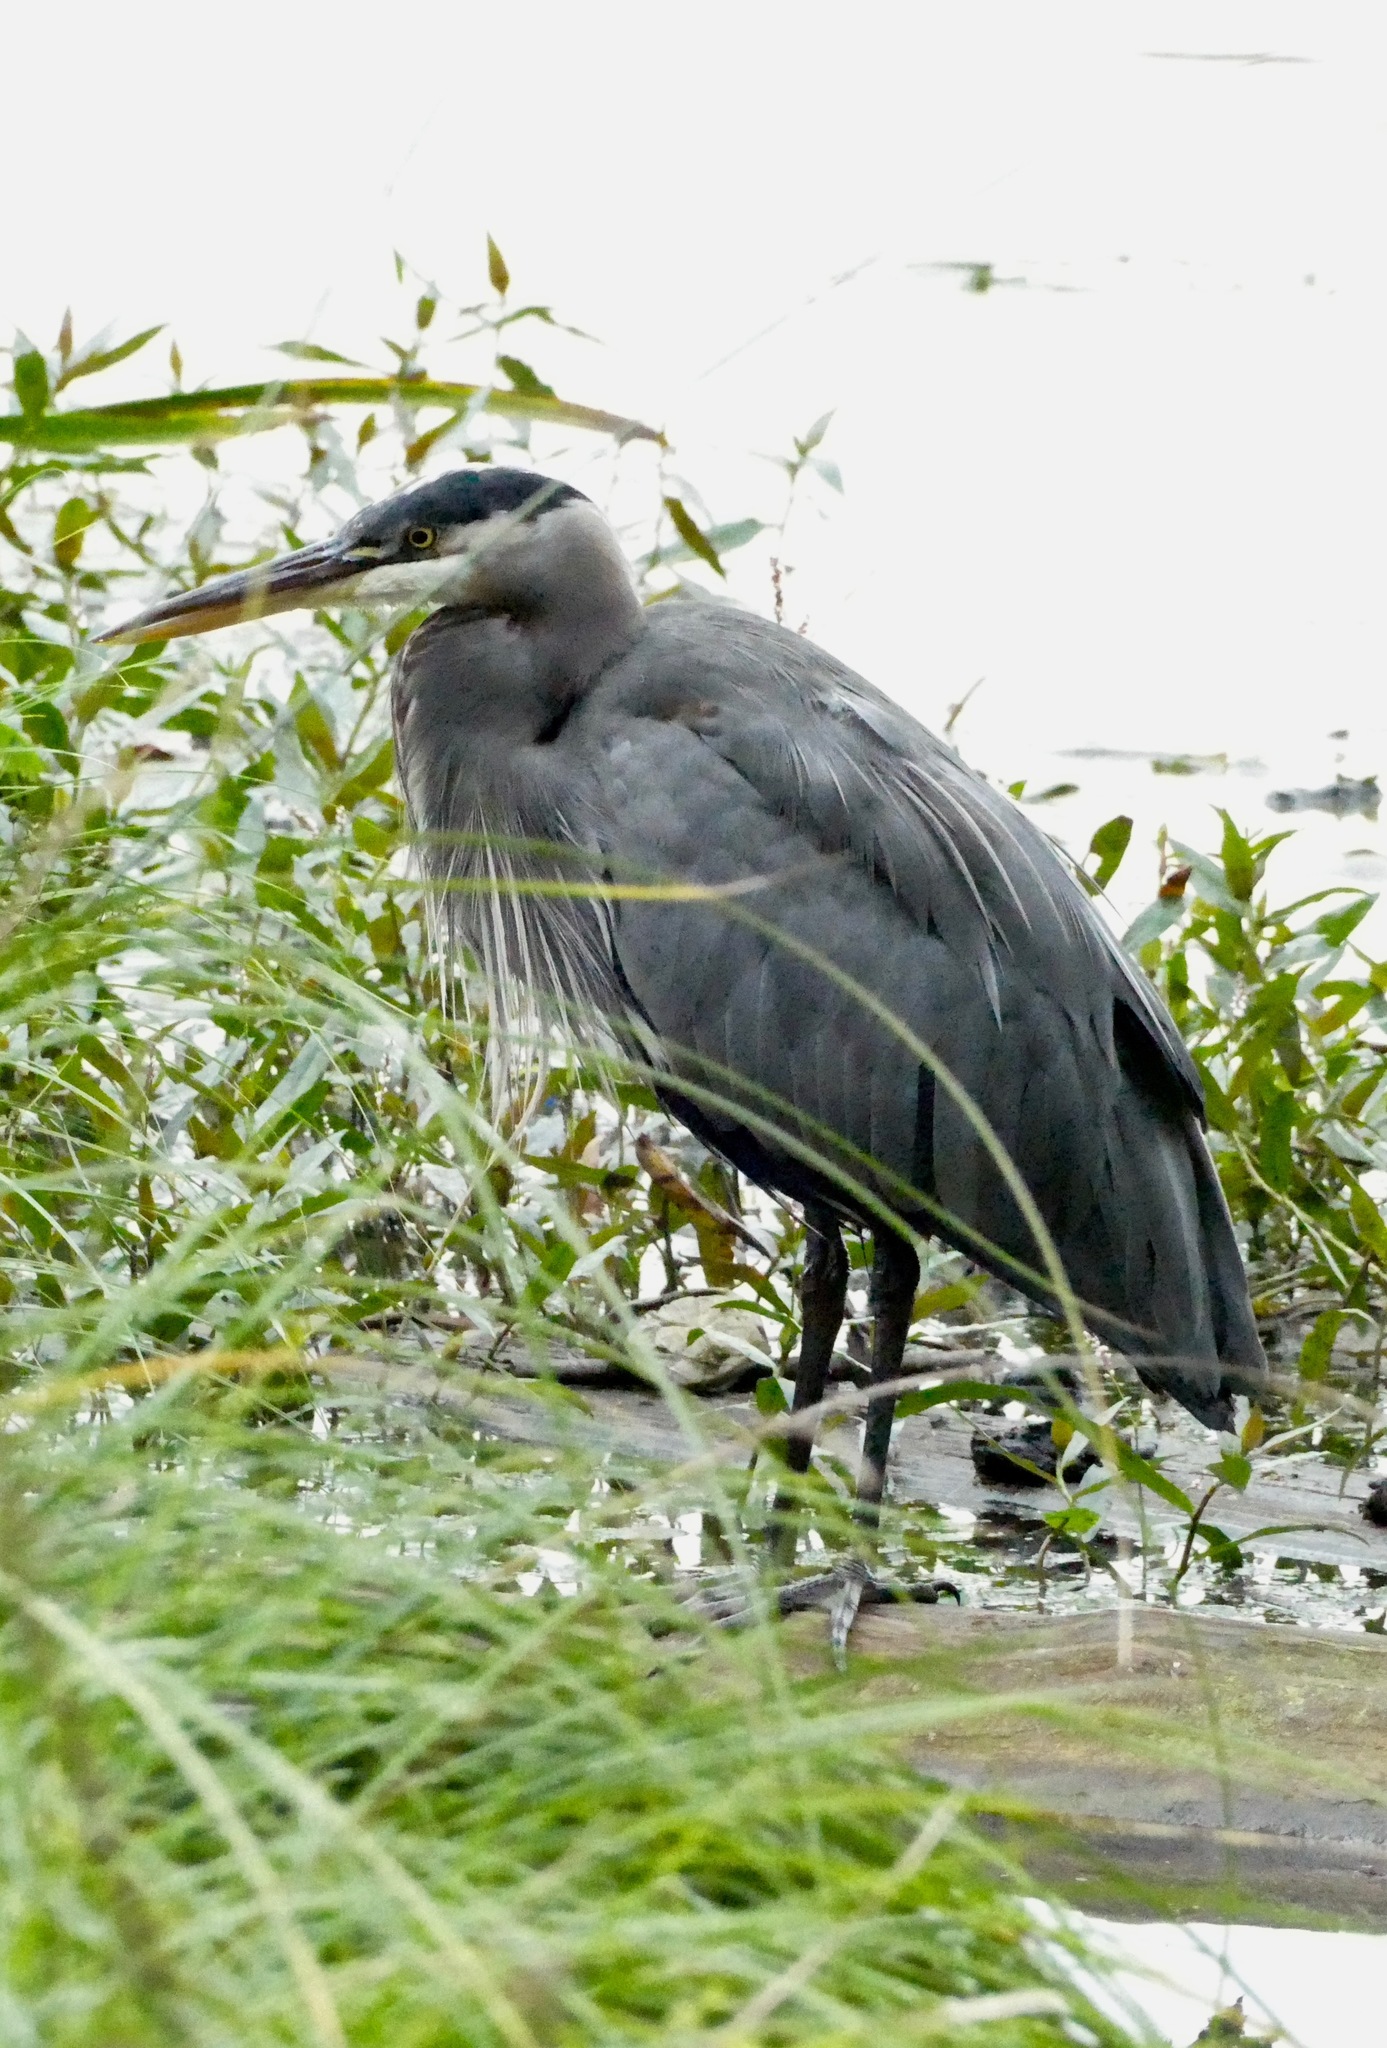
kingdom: Animalia
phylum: Chordata
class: Aves
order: Pelecaniformes
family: Ardeidae
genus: Ardea
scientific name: Ardea herodias
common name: Great blue heron
